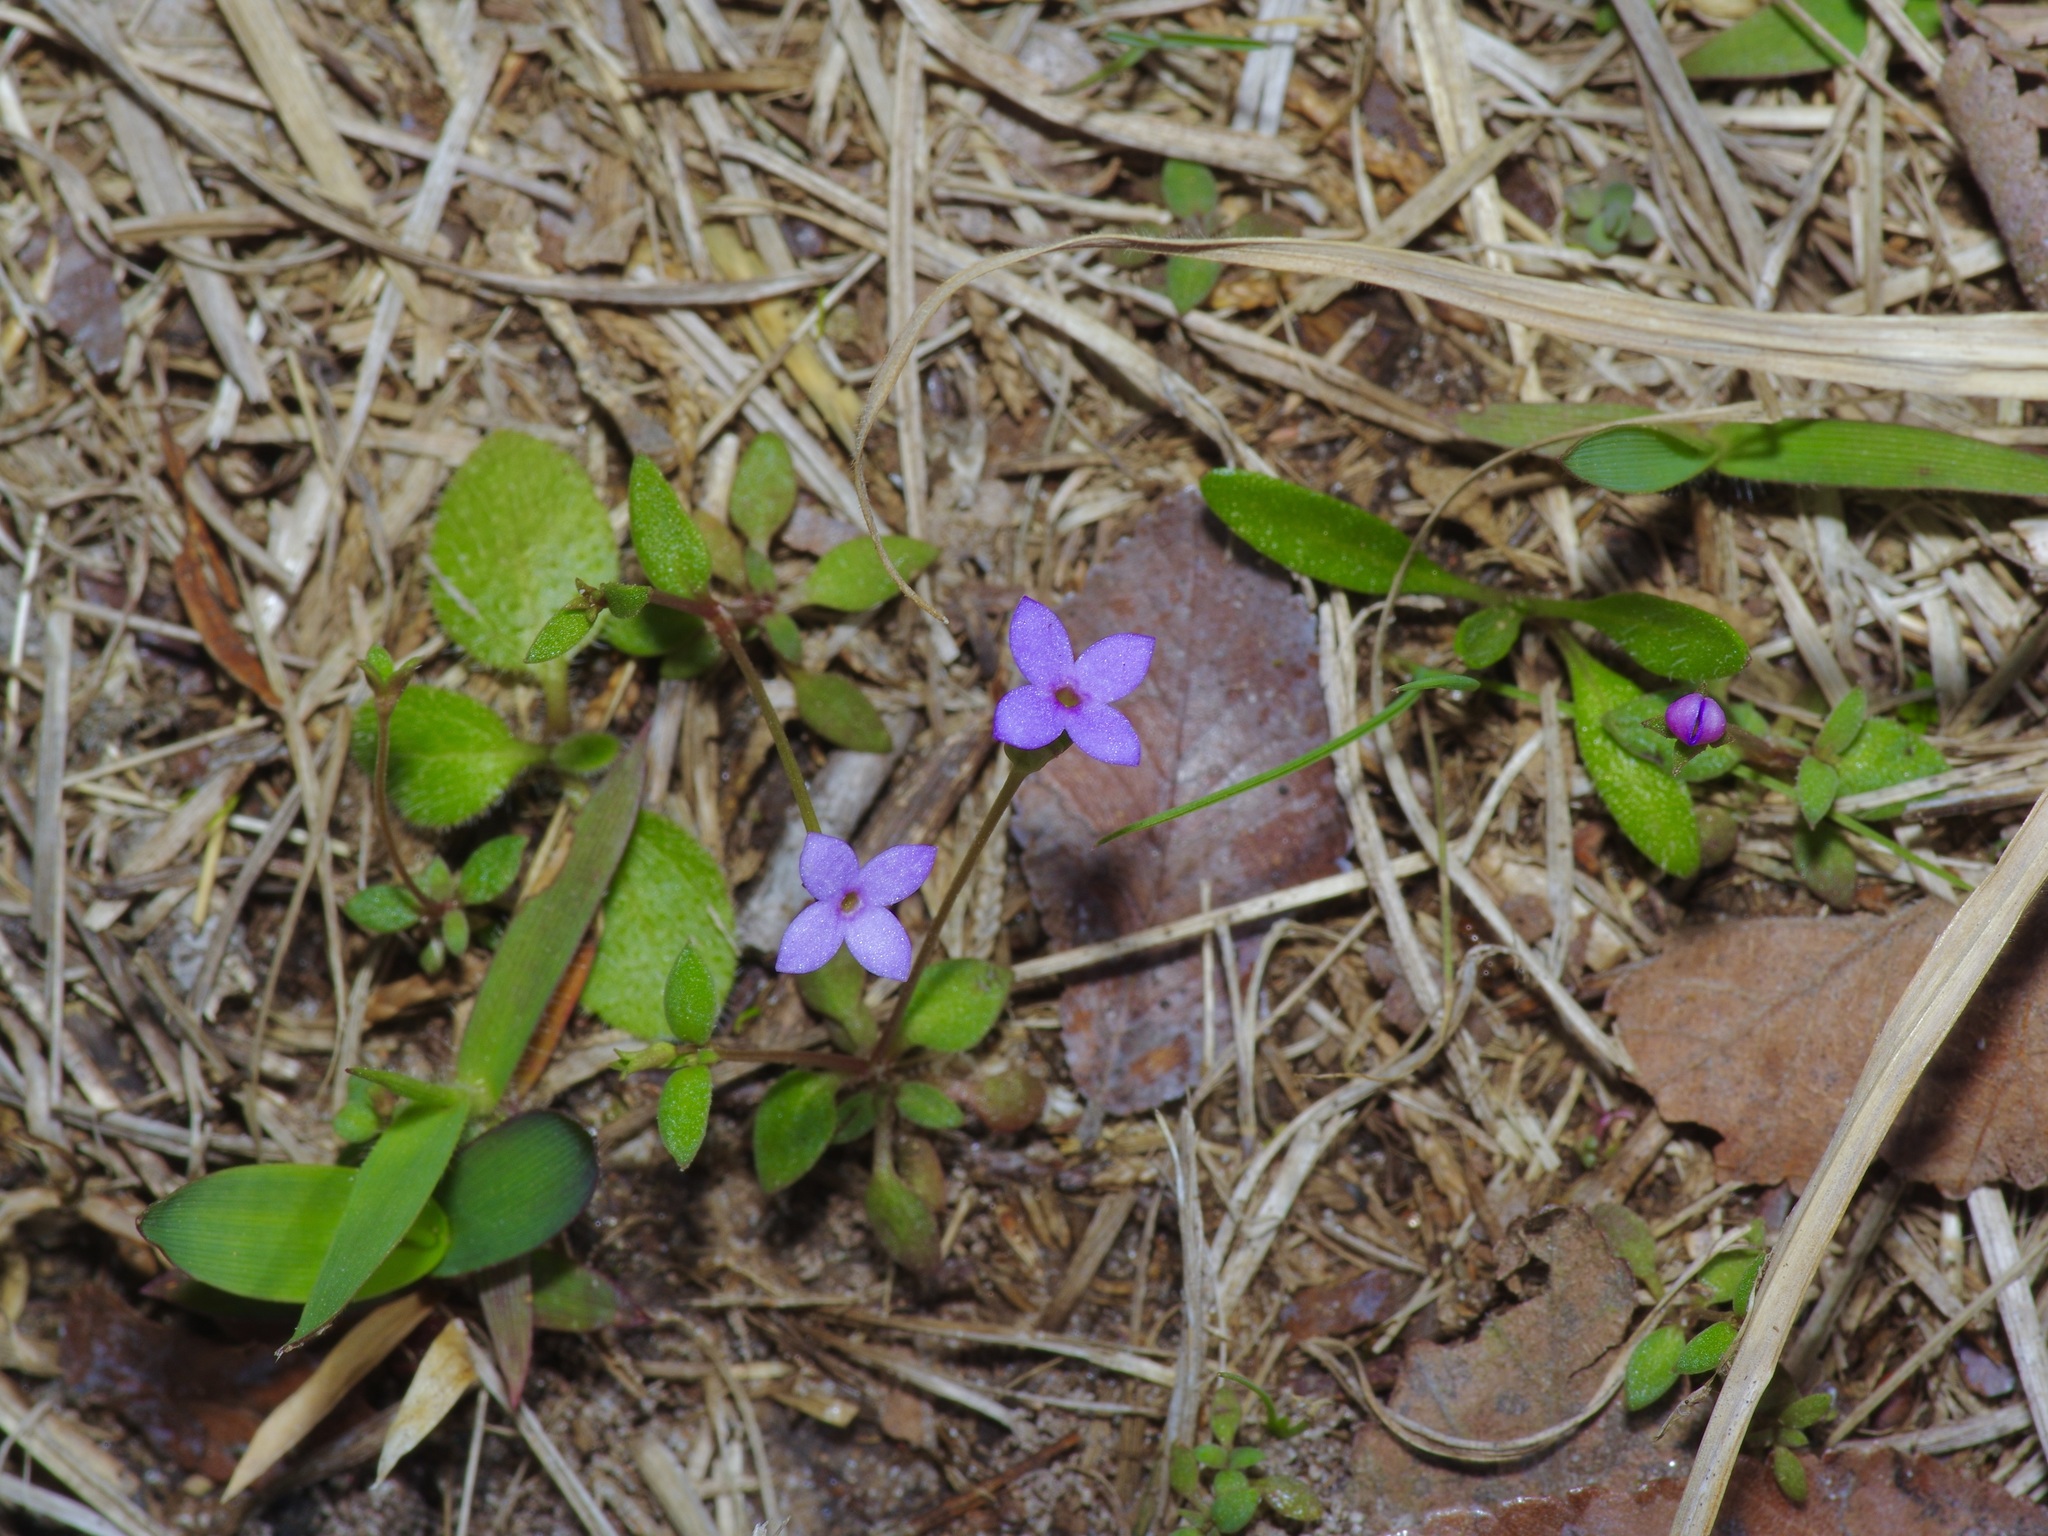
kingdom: Plantae
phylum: Tracheophyta
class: Magnoliopsida
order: Gentianales
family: Rubiaceae
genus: Houstonia
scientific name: Houstonia pusilla
